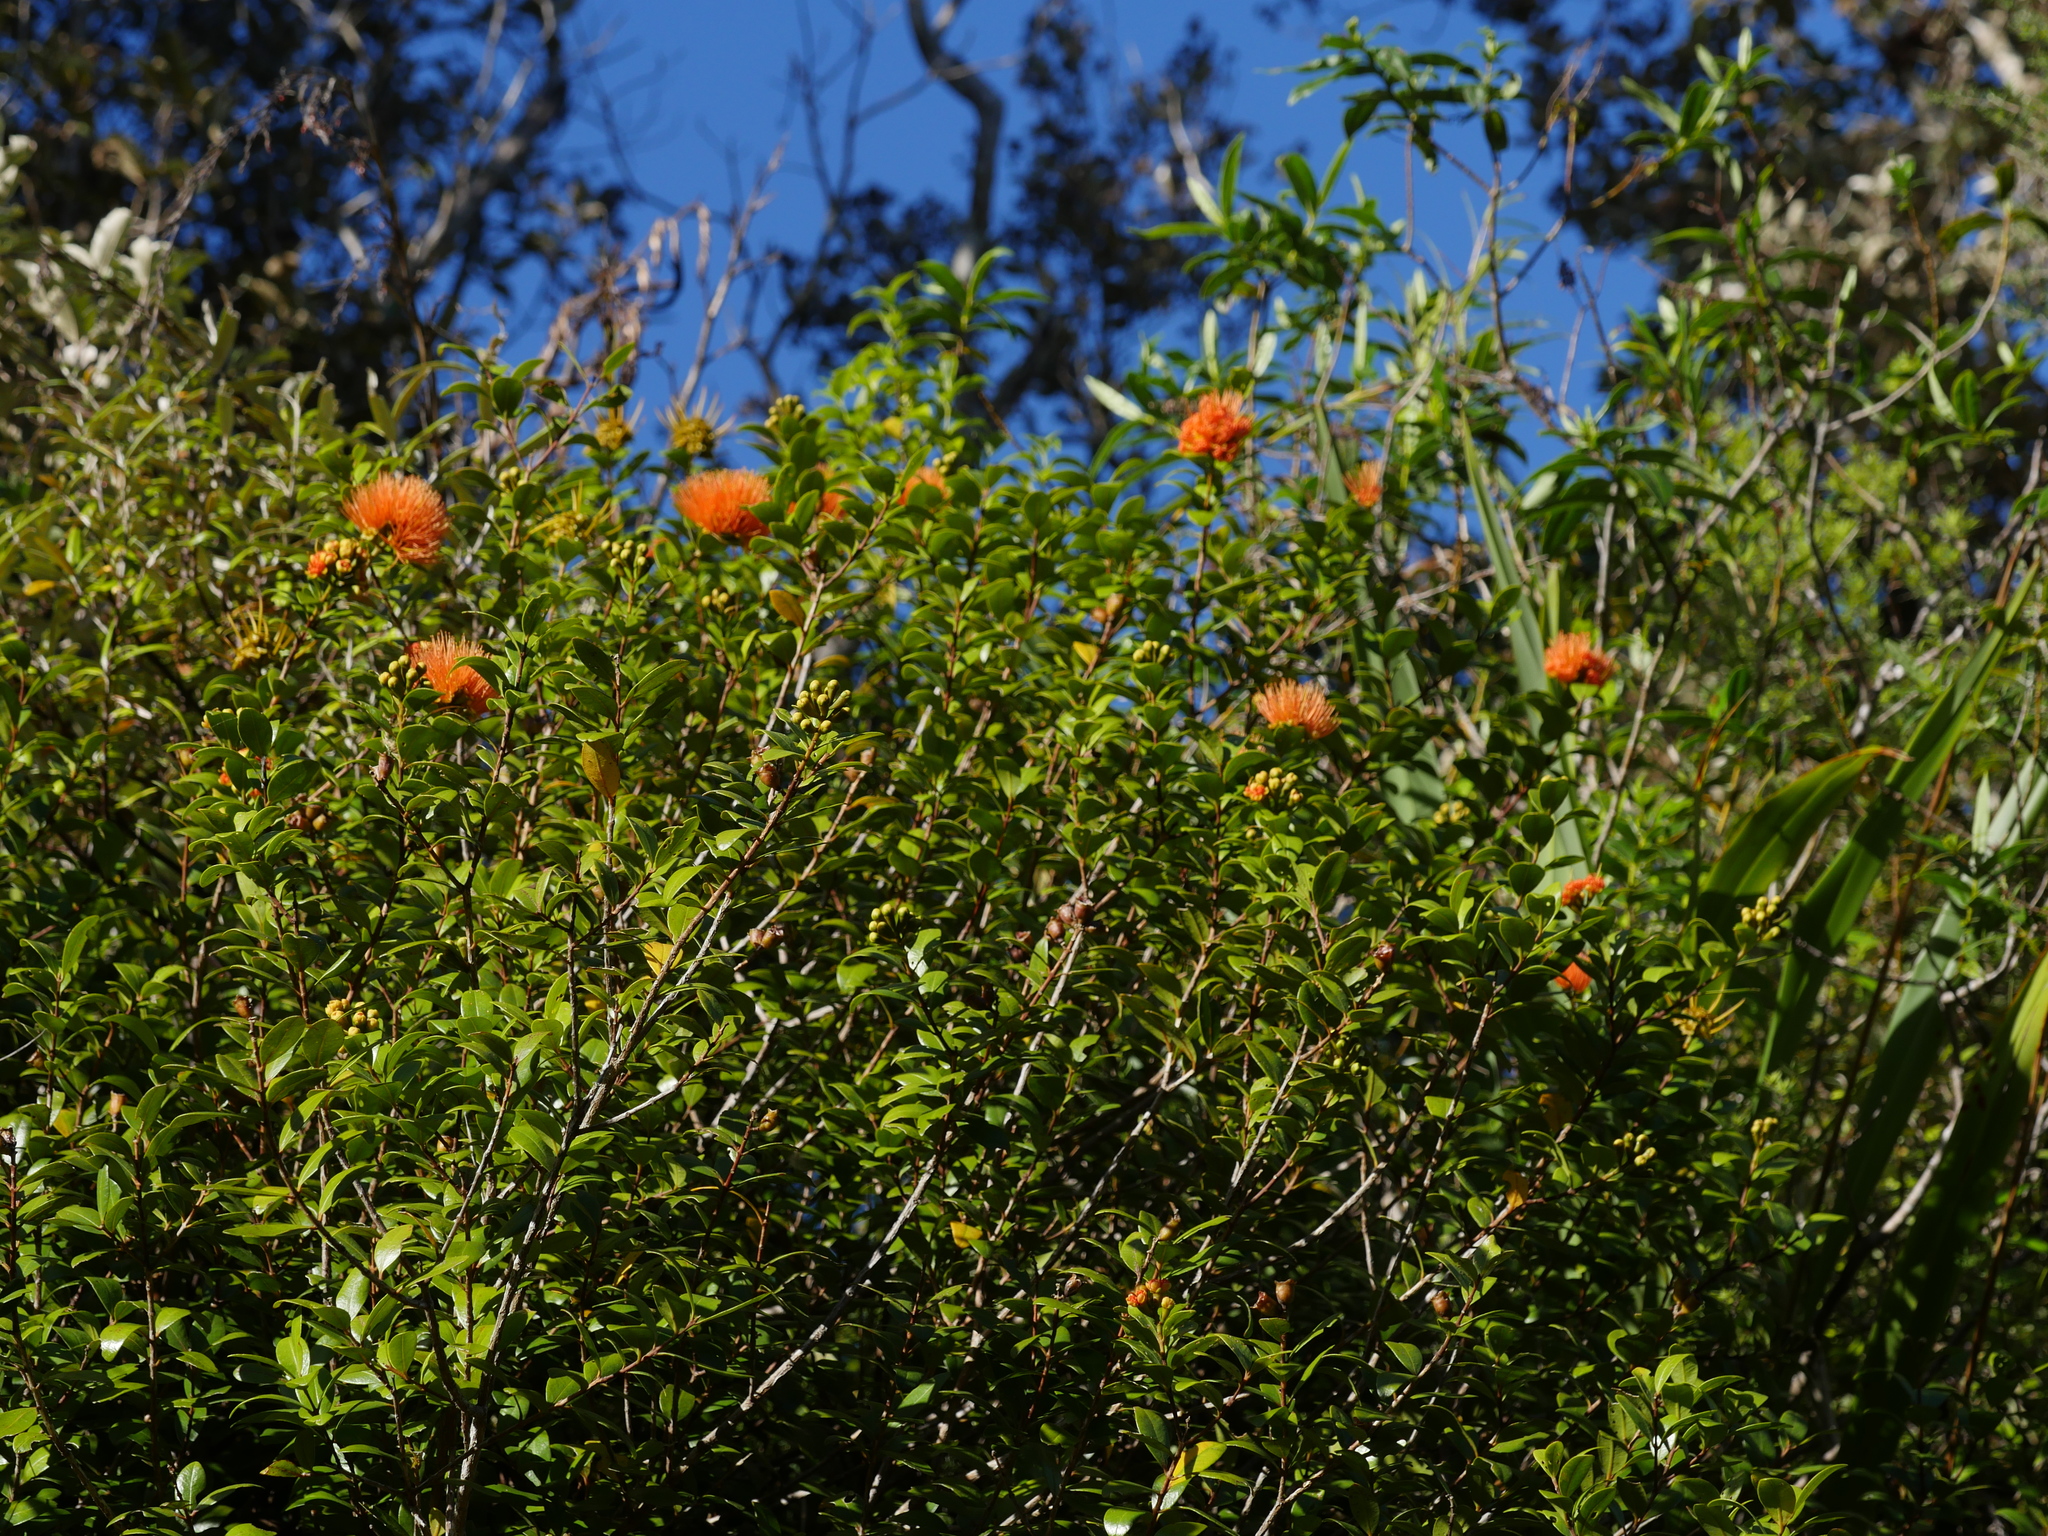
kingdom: Plantae
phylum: Tracheophyta
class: Magnoliopsida
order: Myrtales
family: Myrtaceae
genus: Metrosideros
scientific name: Metrosideros fulgens
